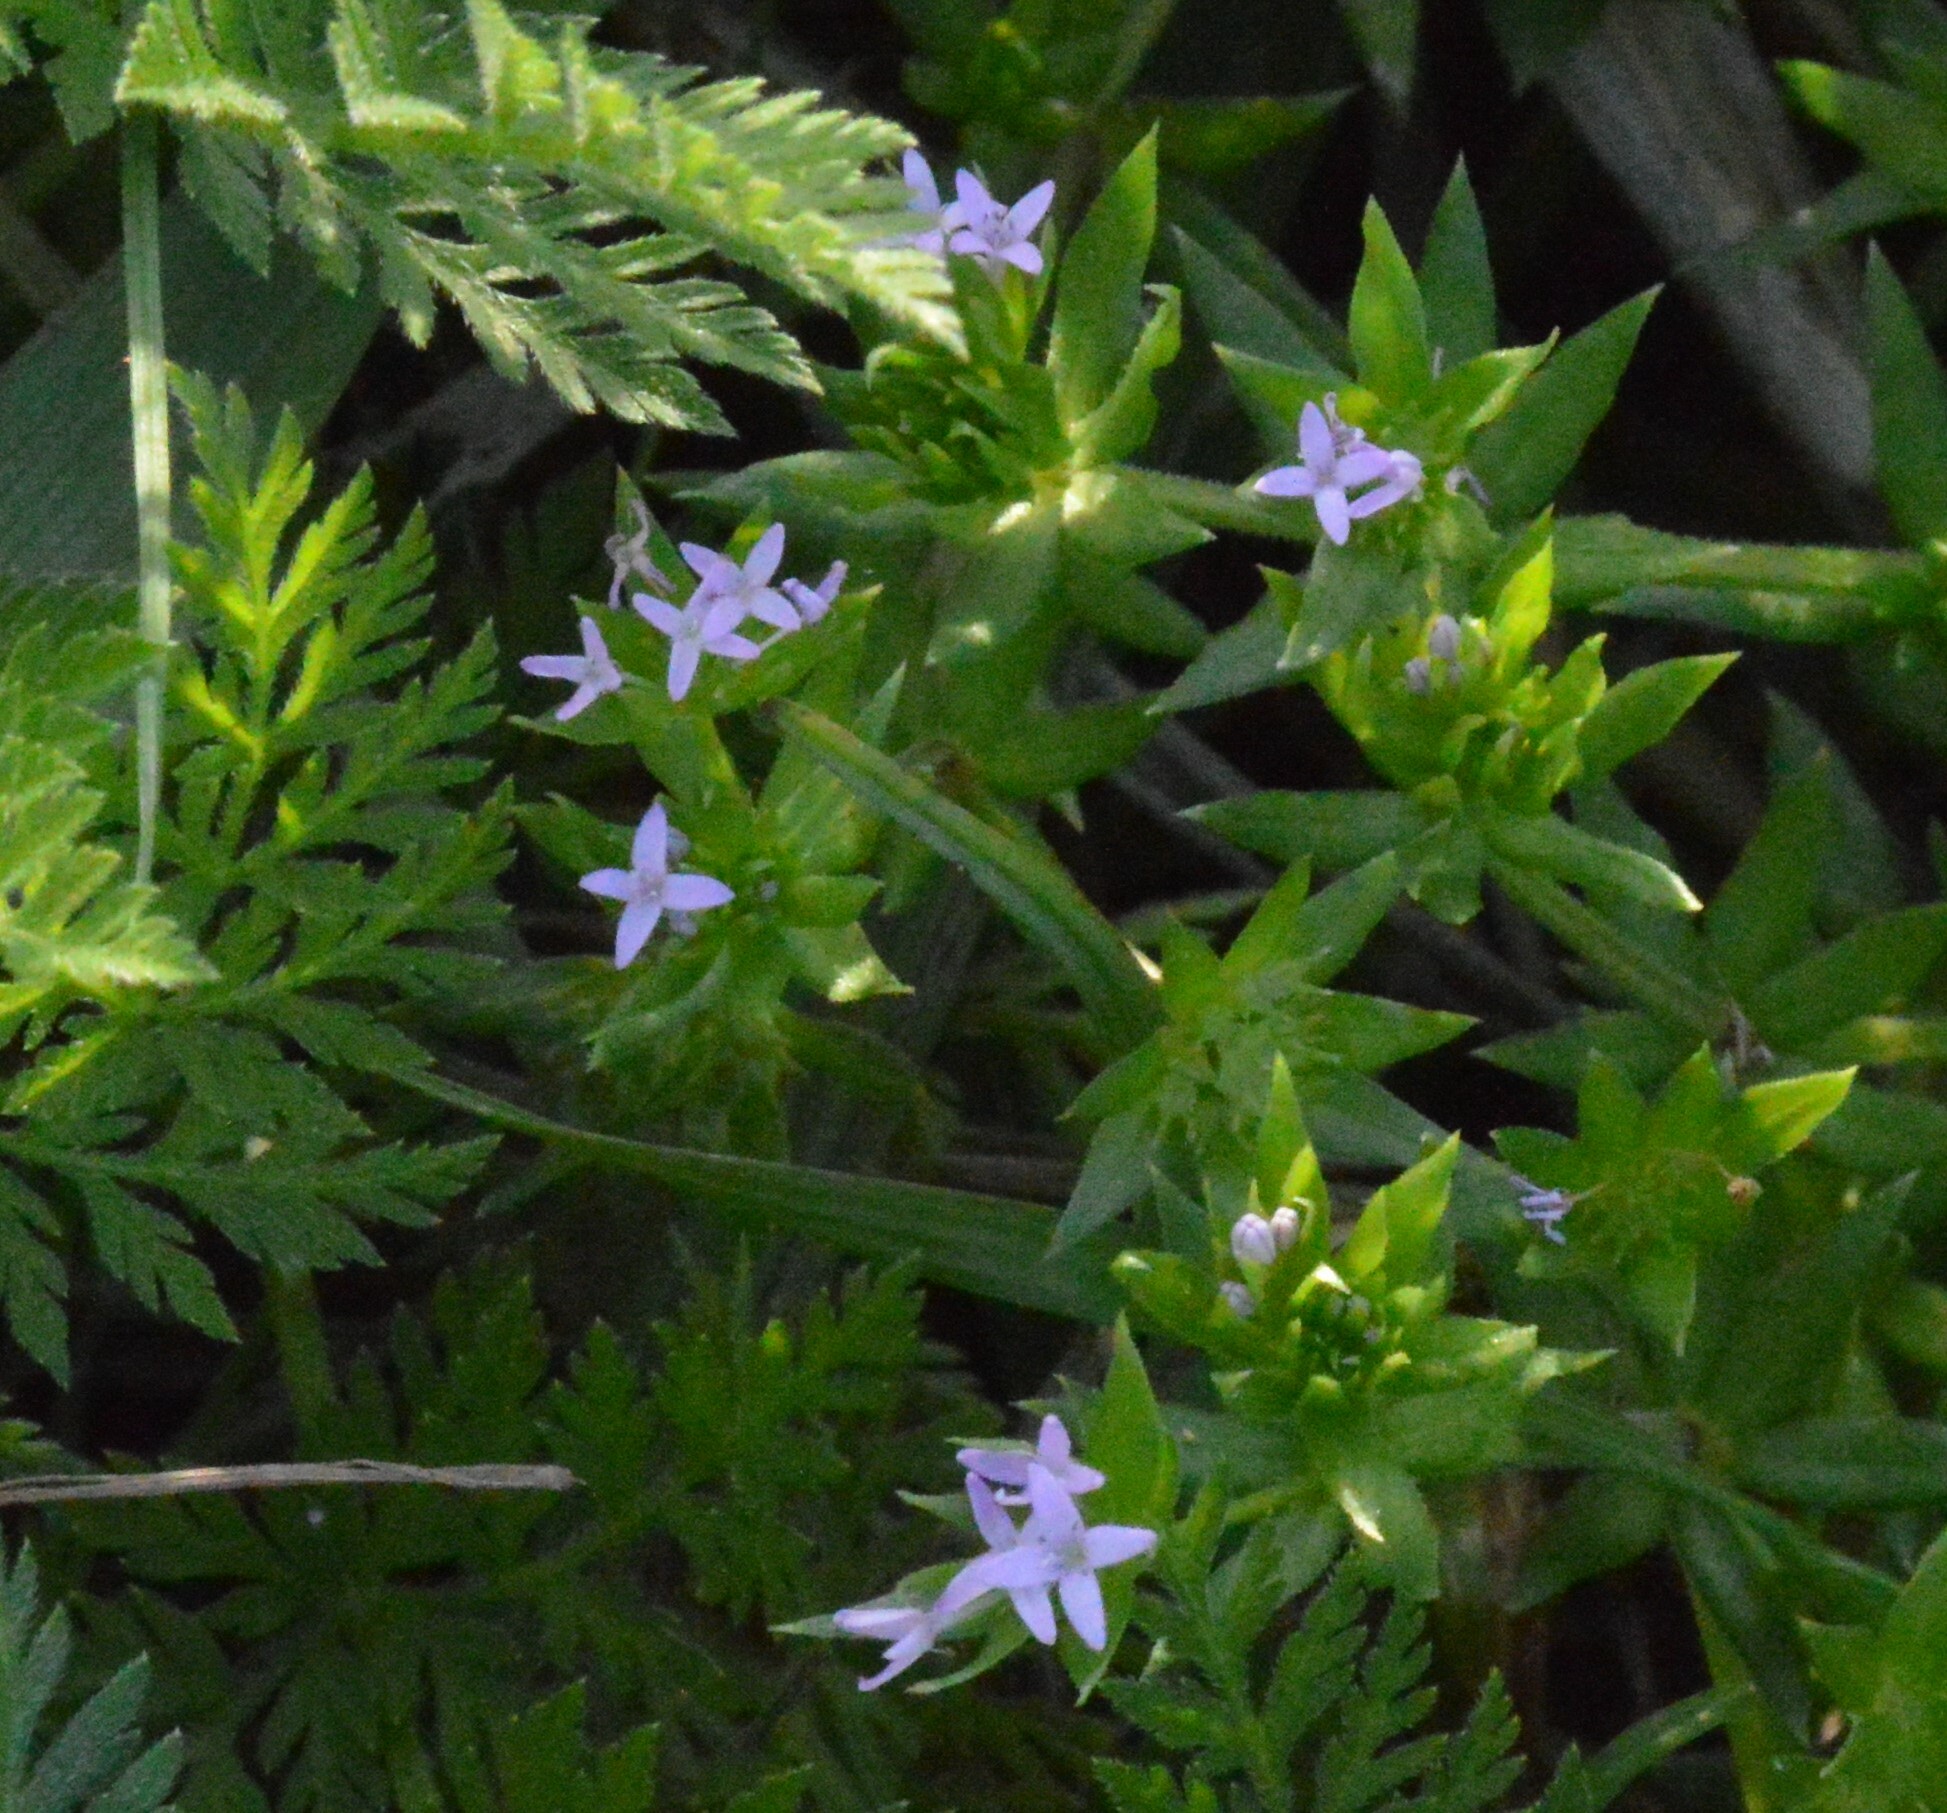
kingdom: Plantae
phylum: Tracheophyta
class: Magnoliopsida
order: Gentianales
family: Rubiaceae
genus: Sherardia
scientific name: Sherardia arvensis
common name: Field madder
